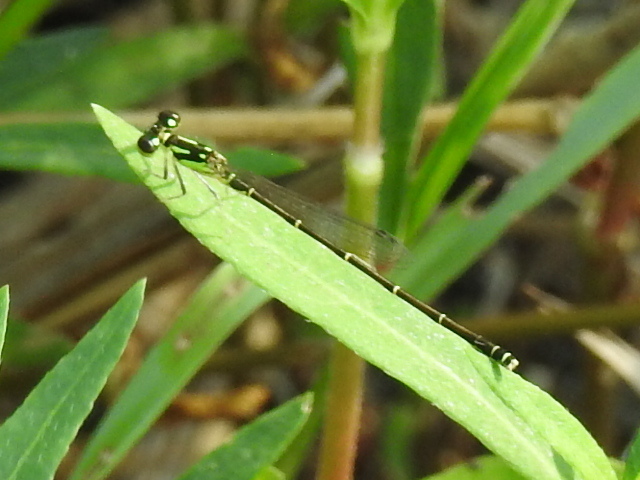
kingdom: Animalia
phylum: Arthropoda
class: Insecta
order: Odonata
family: Coenagrionidae
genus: Ischnura
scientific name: Ischnura posita
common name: Fragile forktail
